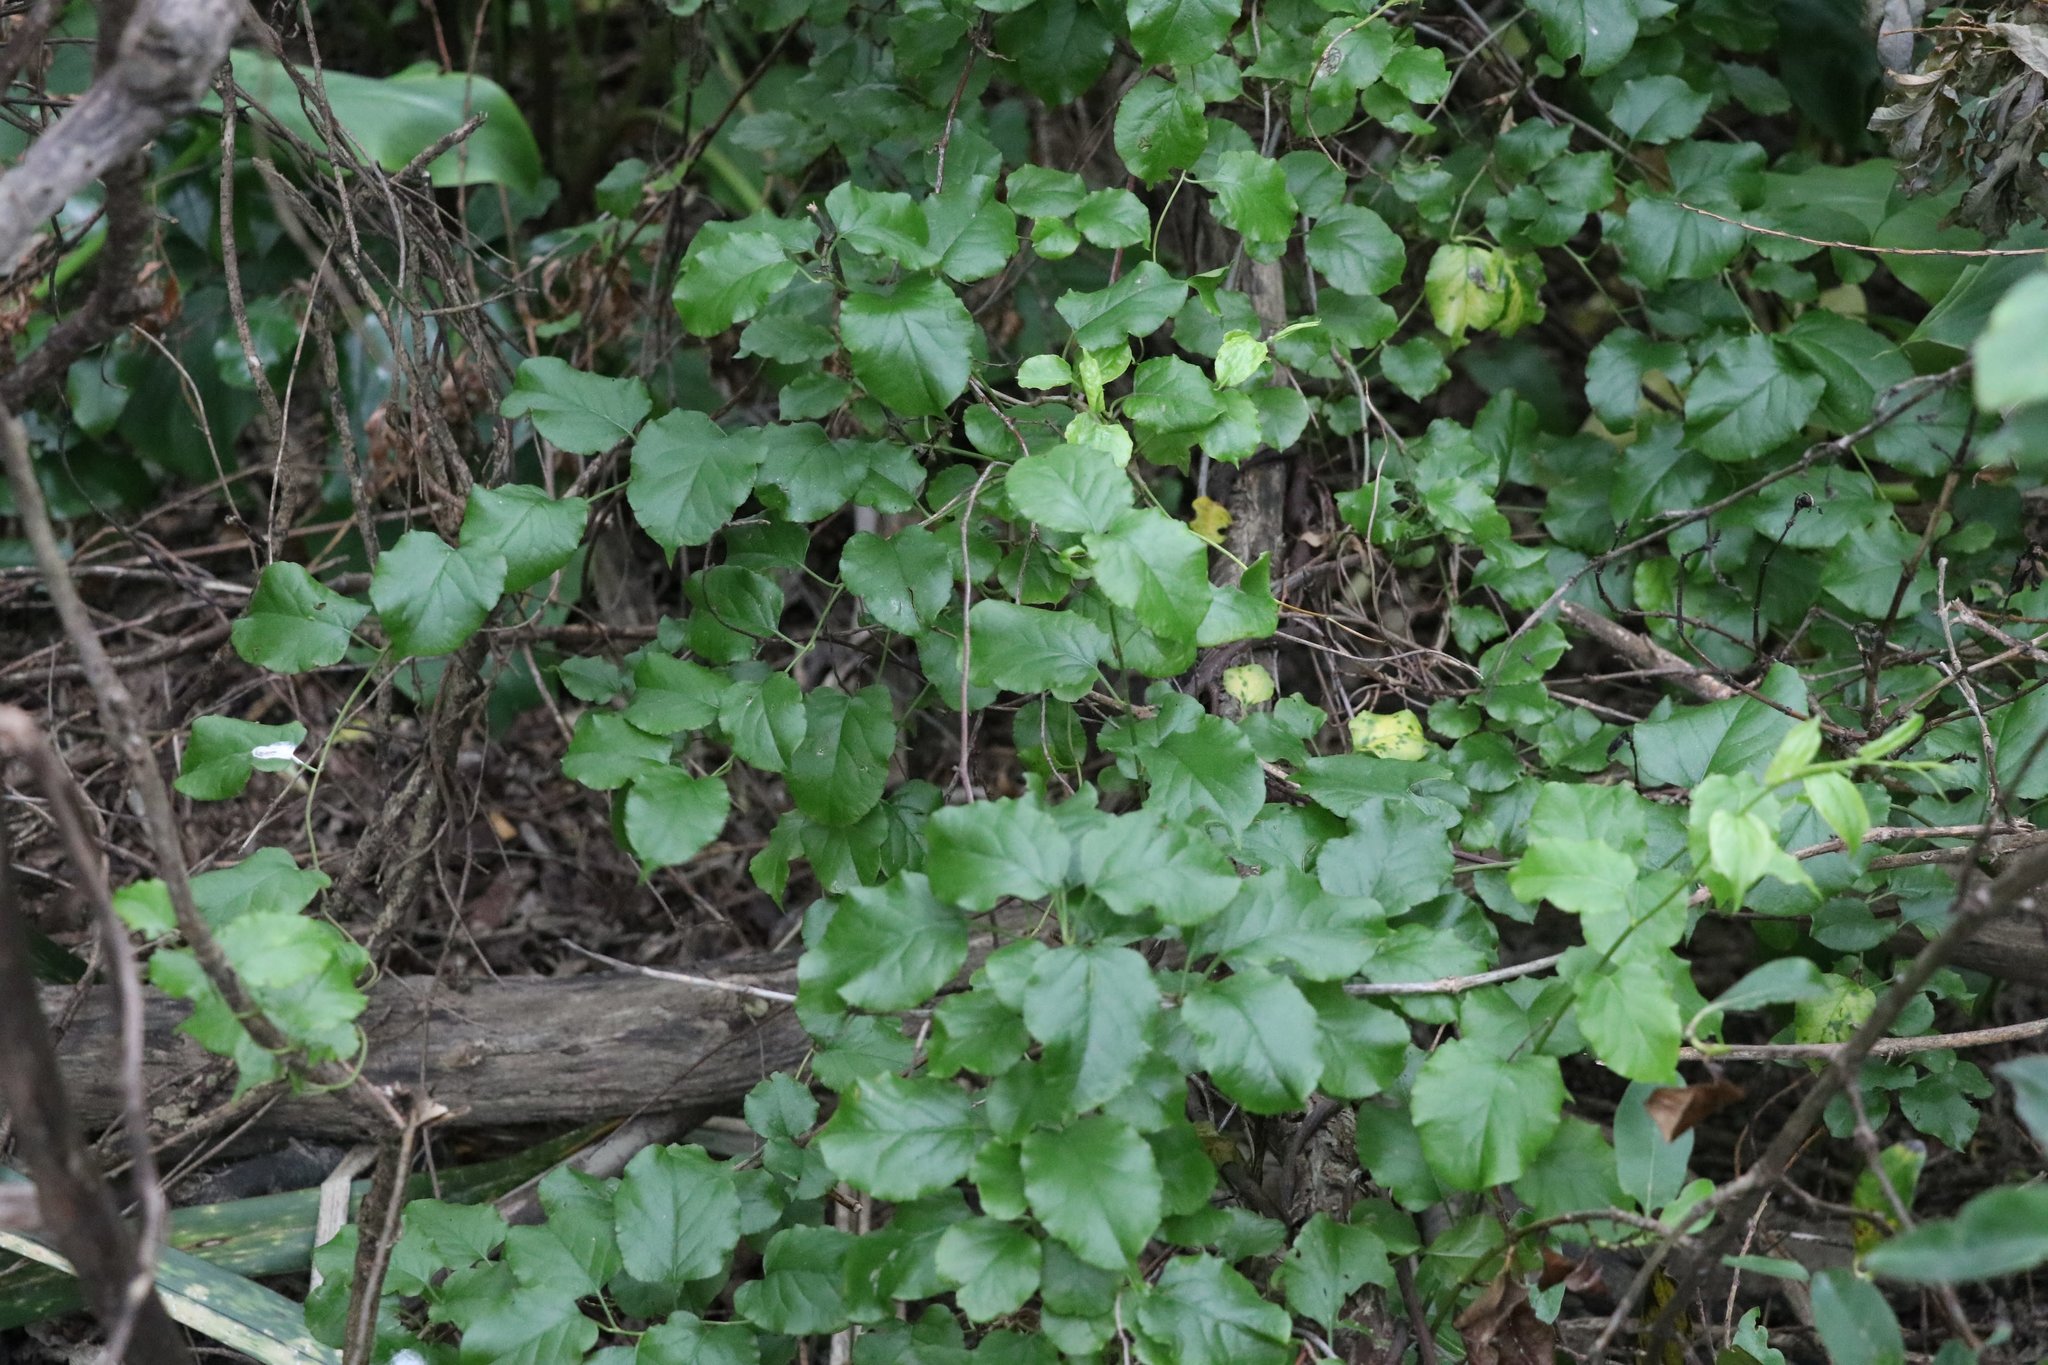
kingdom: Plantae
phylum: Tracheophyta
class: Magnoliopsida
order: Caryophyllales
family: Polygonaceae
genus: Muehlenbeckia
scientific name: Muehlenbeckia australis
